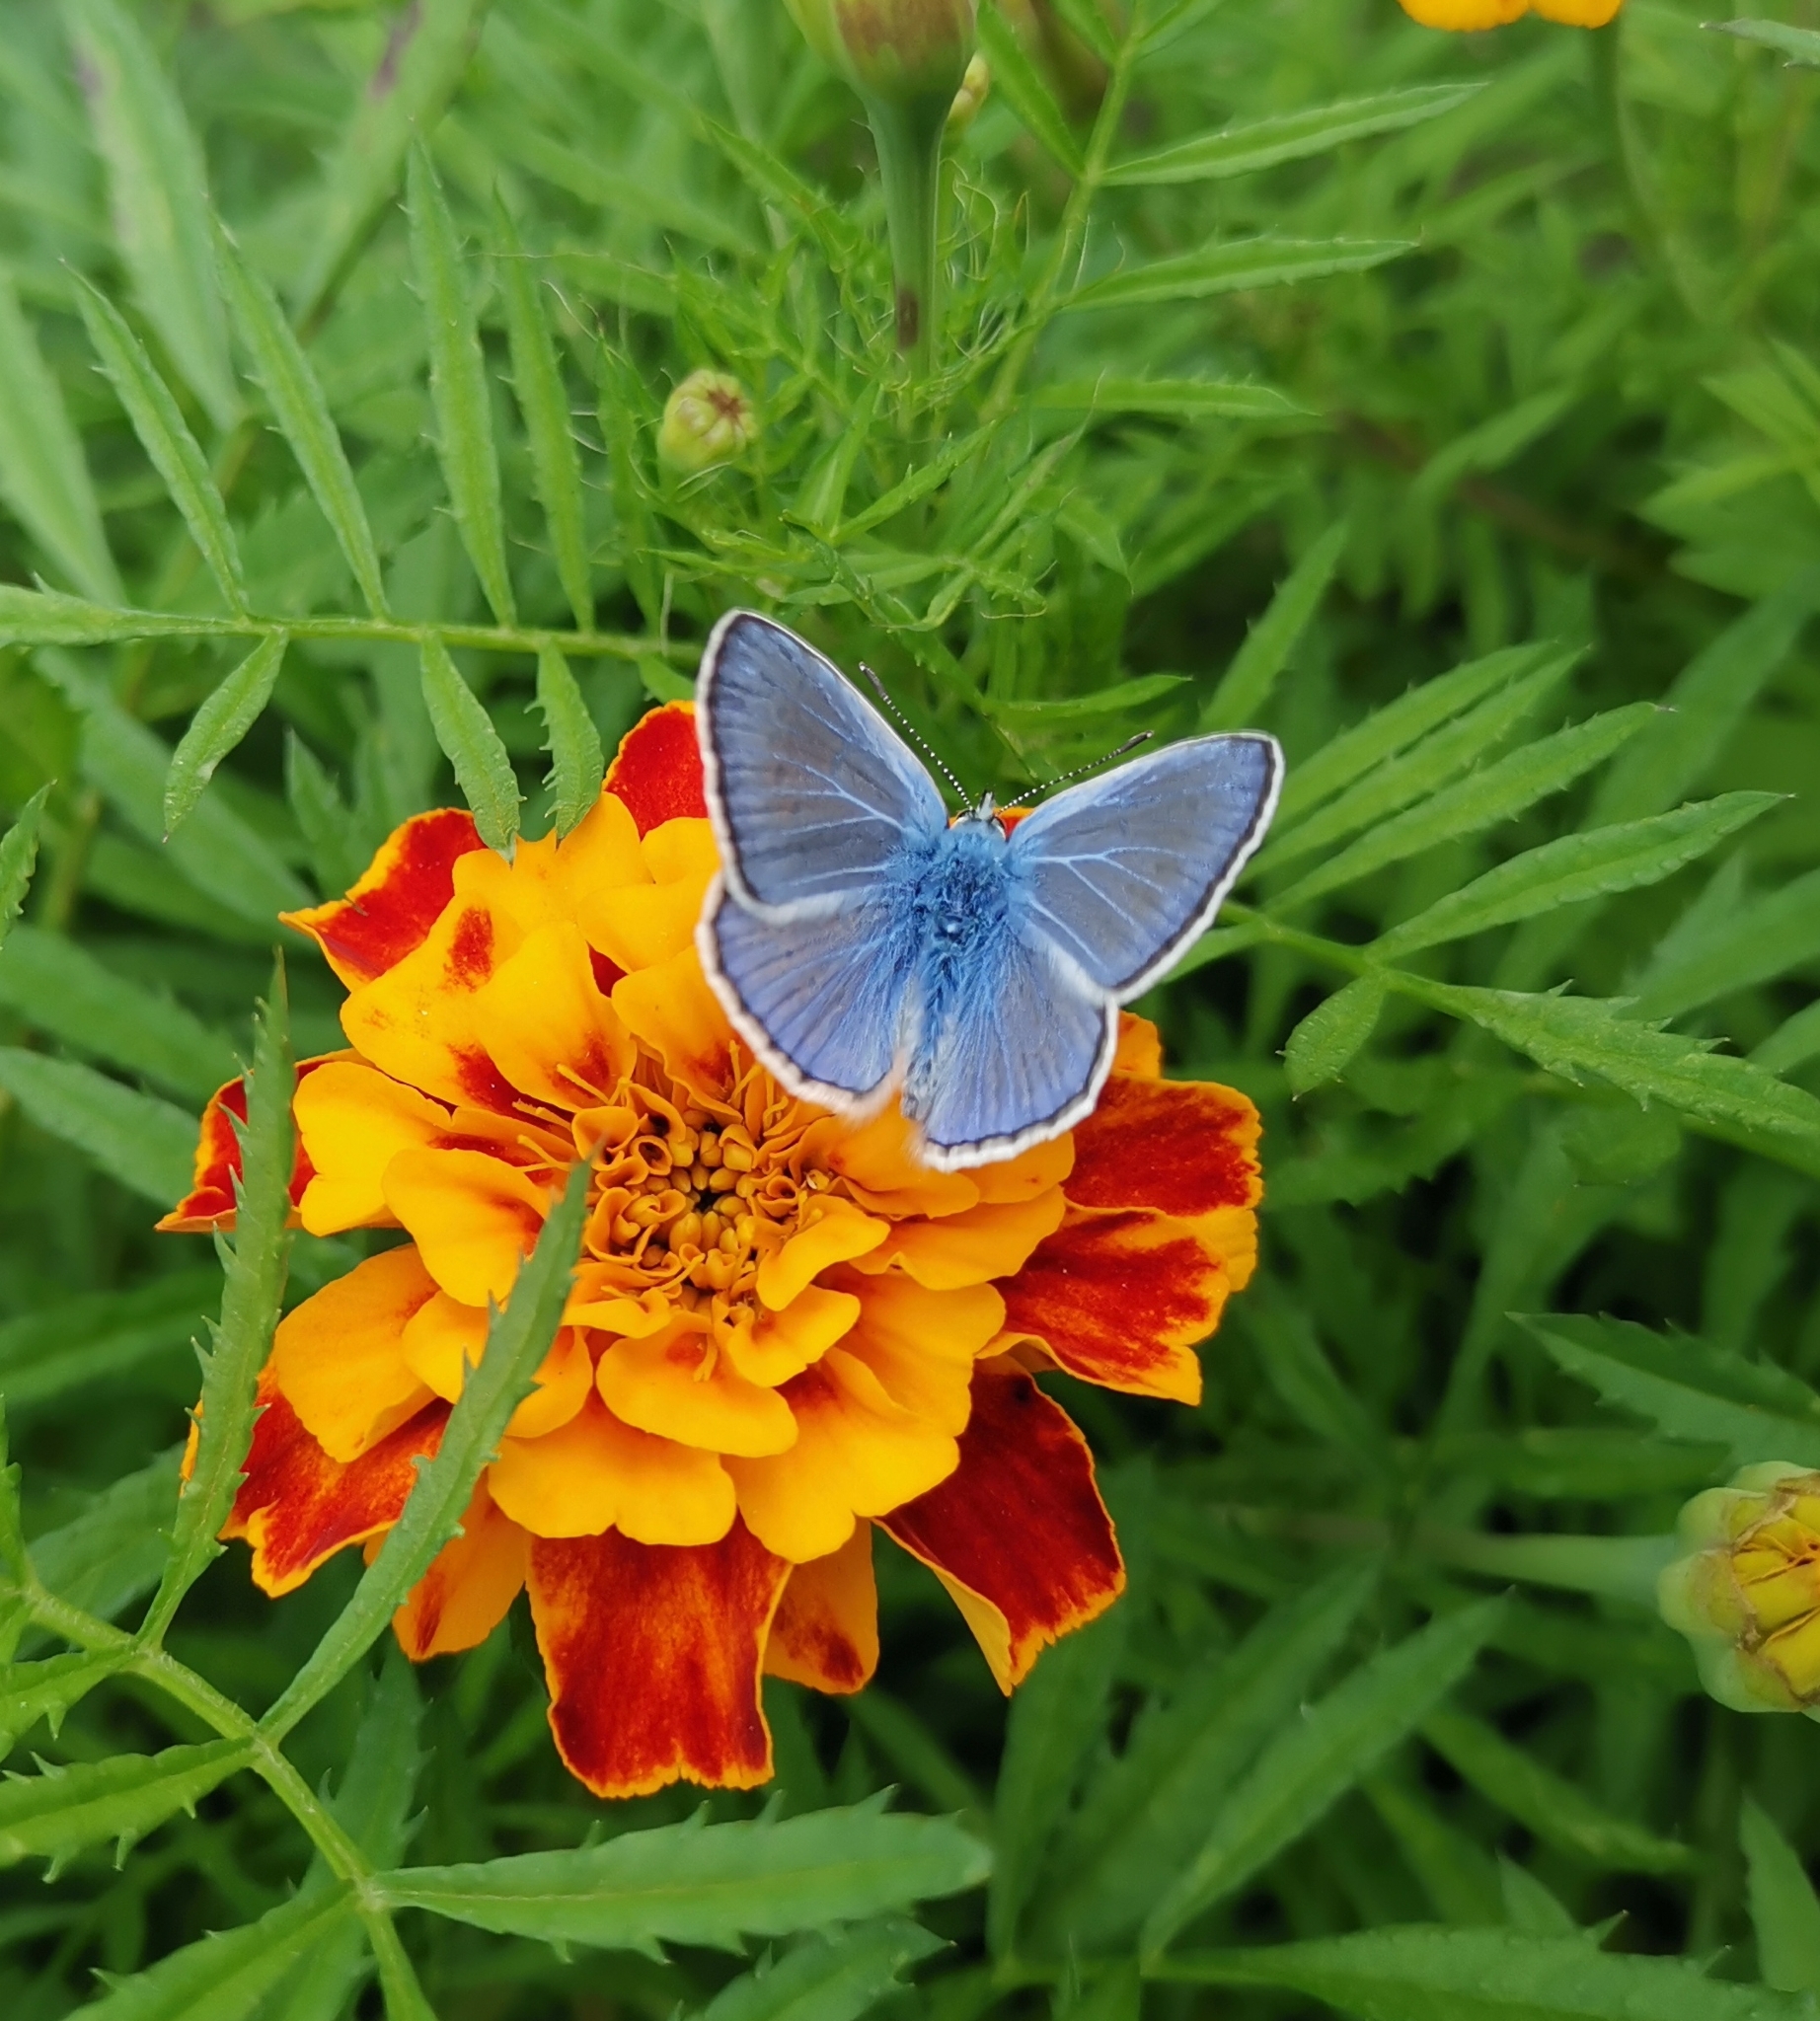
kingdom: Animalia
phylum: Arthropoda
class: Insecta
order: Lepidoptera
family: Lycaenidae
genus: Polyommatus
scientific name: Polyommatus icarus
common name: Common blue
